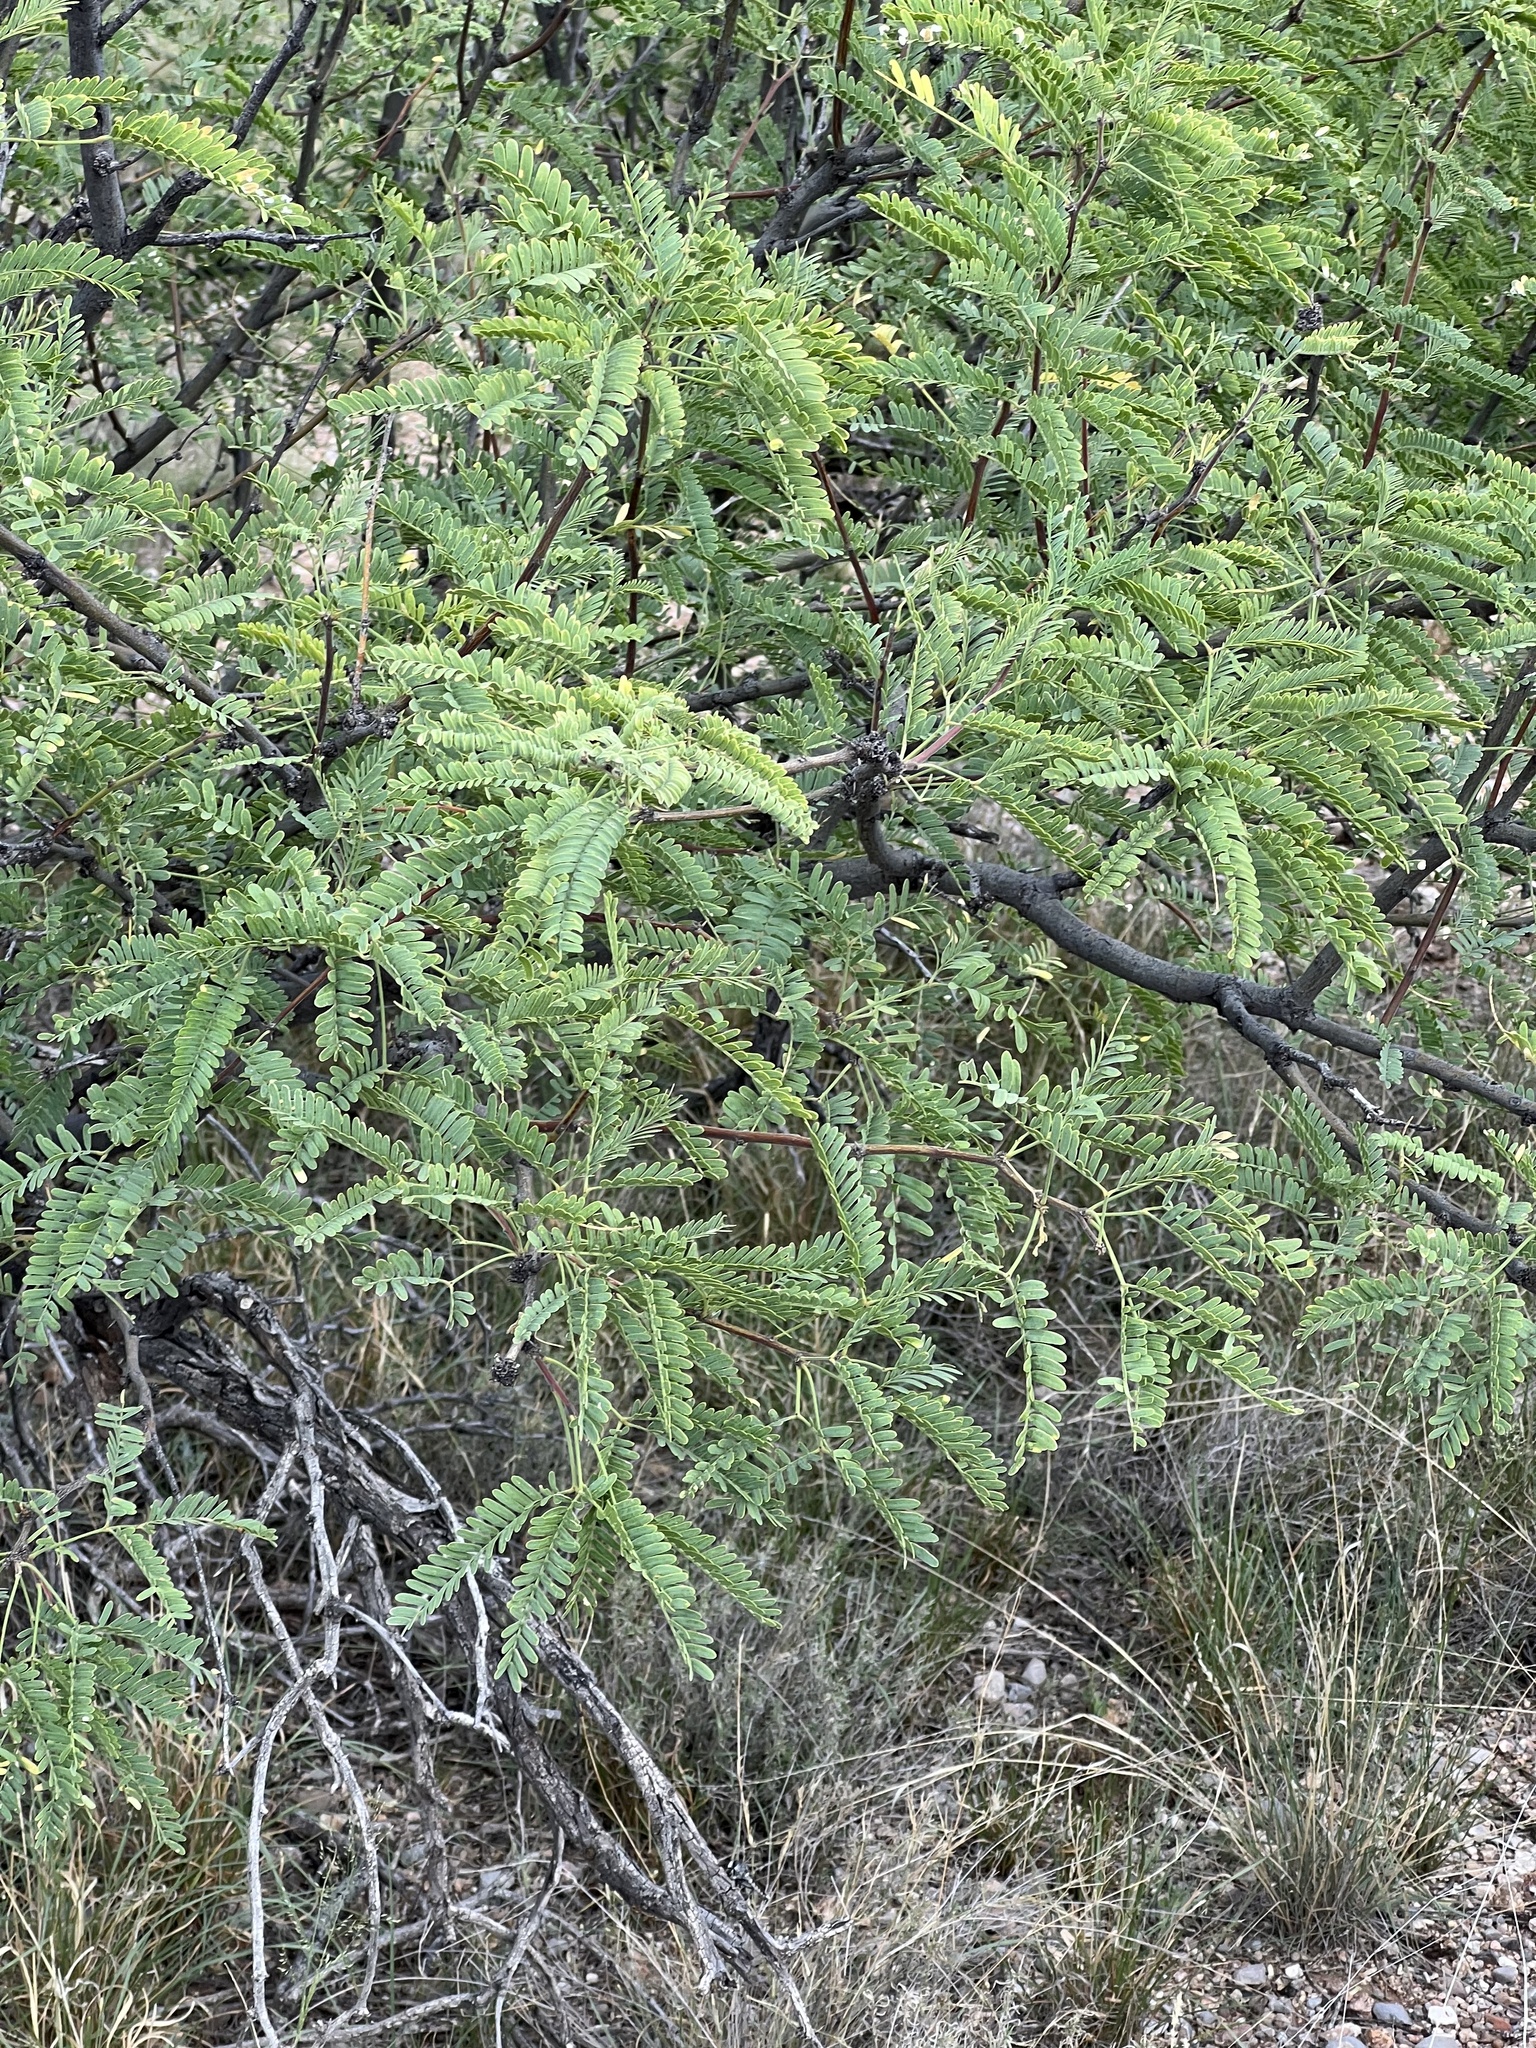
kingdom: Plantae
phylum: Tracheophyta
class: Magnoliopsida
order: Fabales
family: Fabaceae
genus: Prosopis
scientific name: Prosopis velutina
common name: Velvet mesquite
